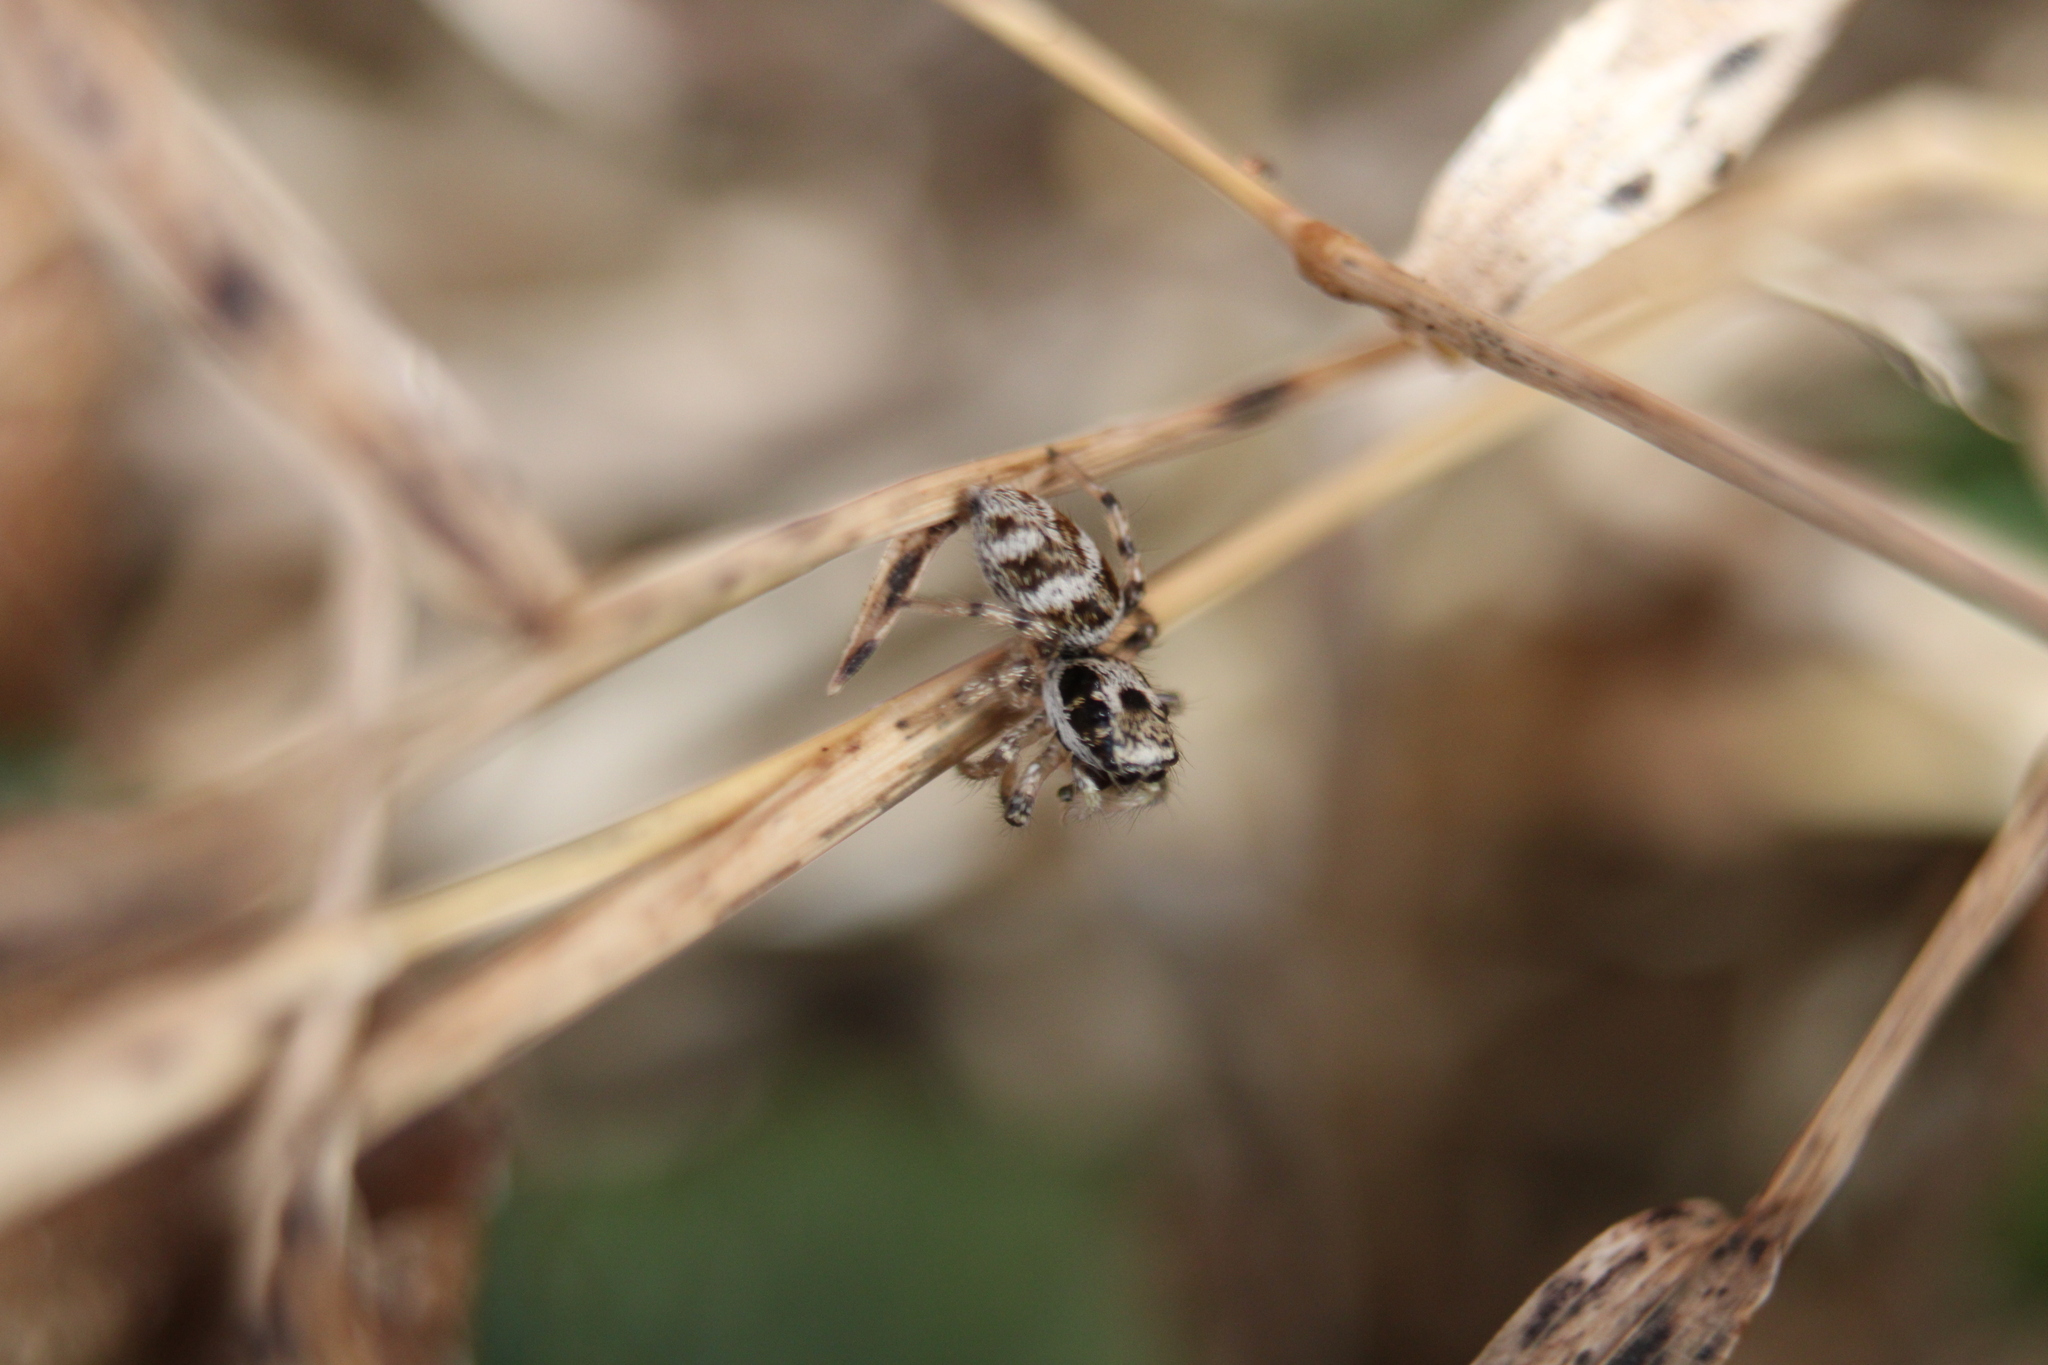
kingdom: Animalia
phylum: Arthropoda
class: Arachnida
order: Araneae
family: Salticidae
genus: Salticus
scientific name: Salticus scenicus
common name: Zebra jumper
